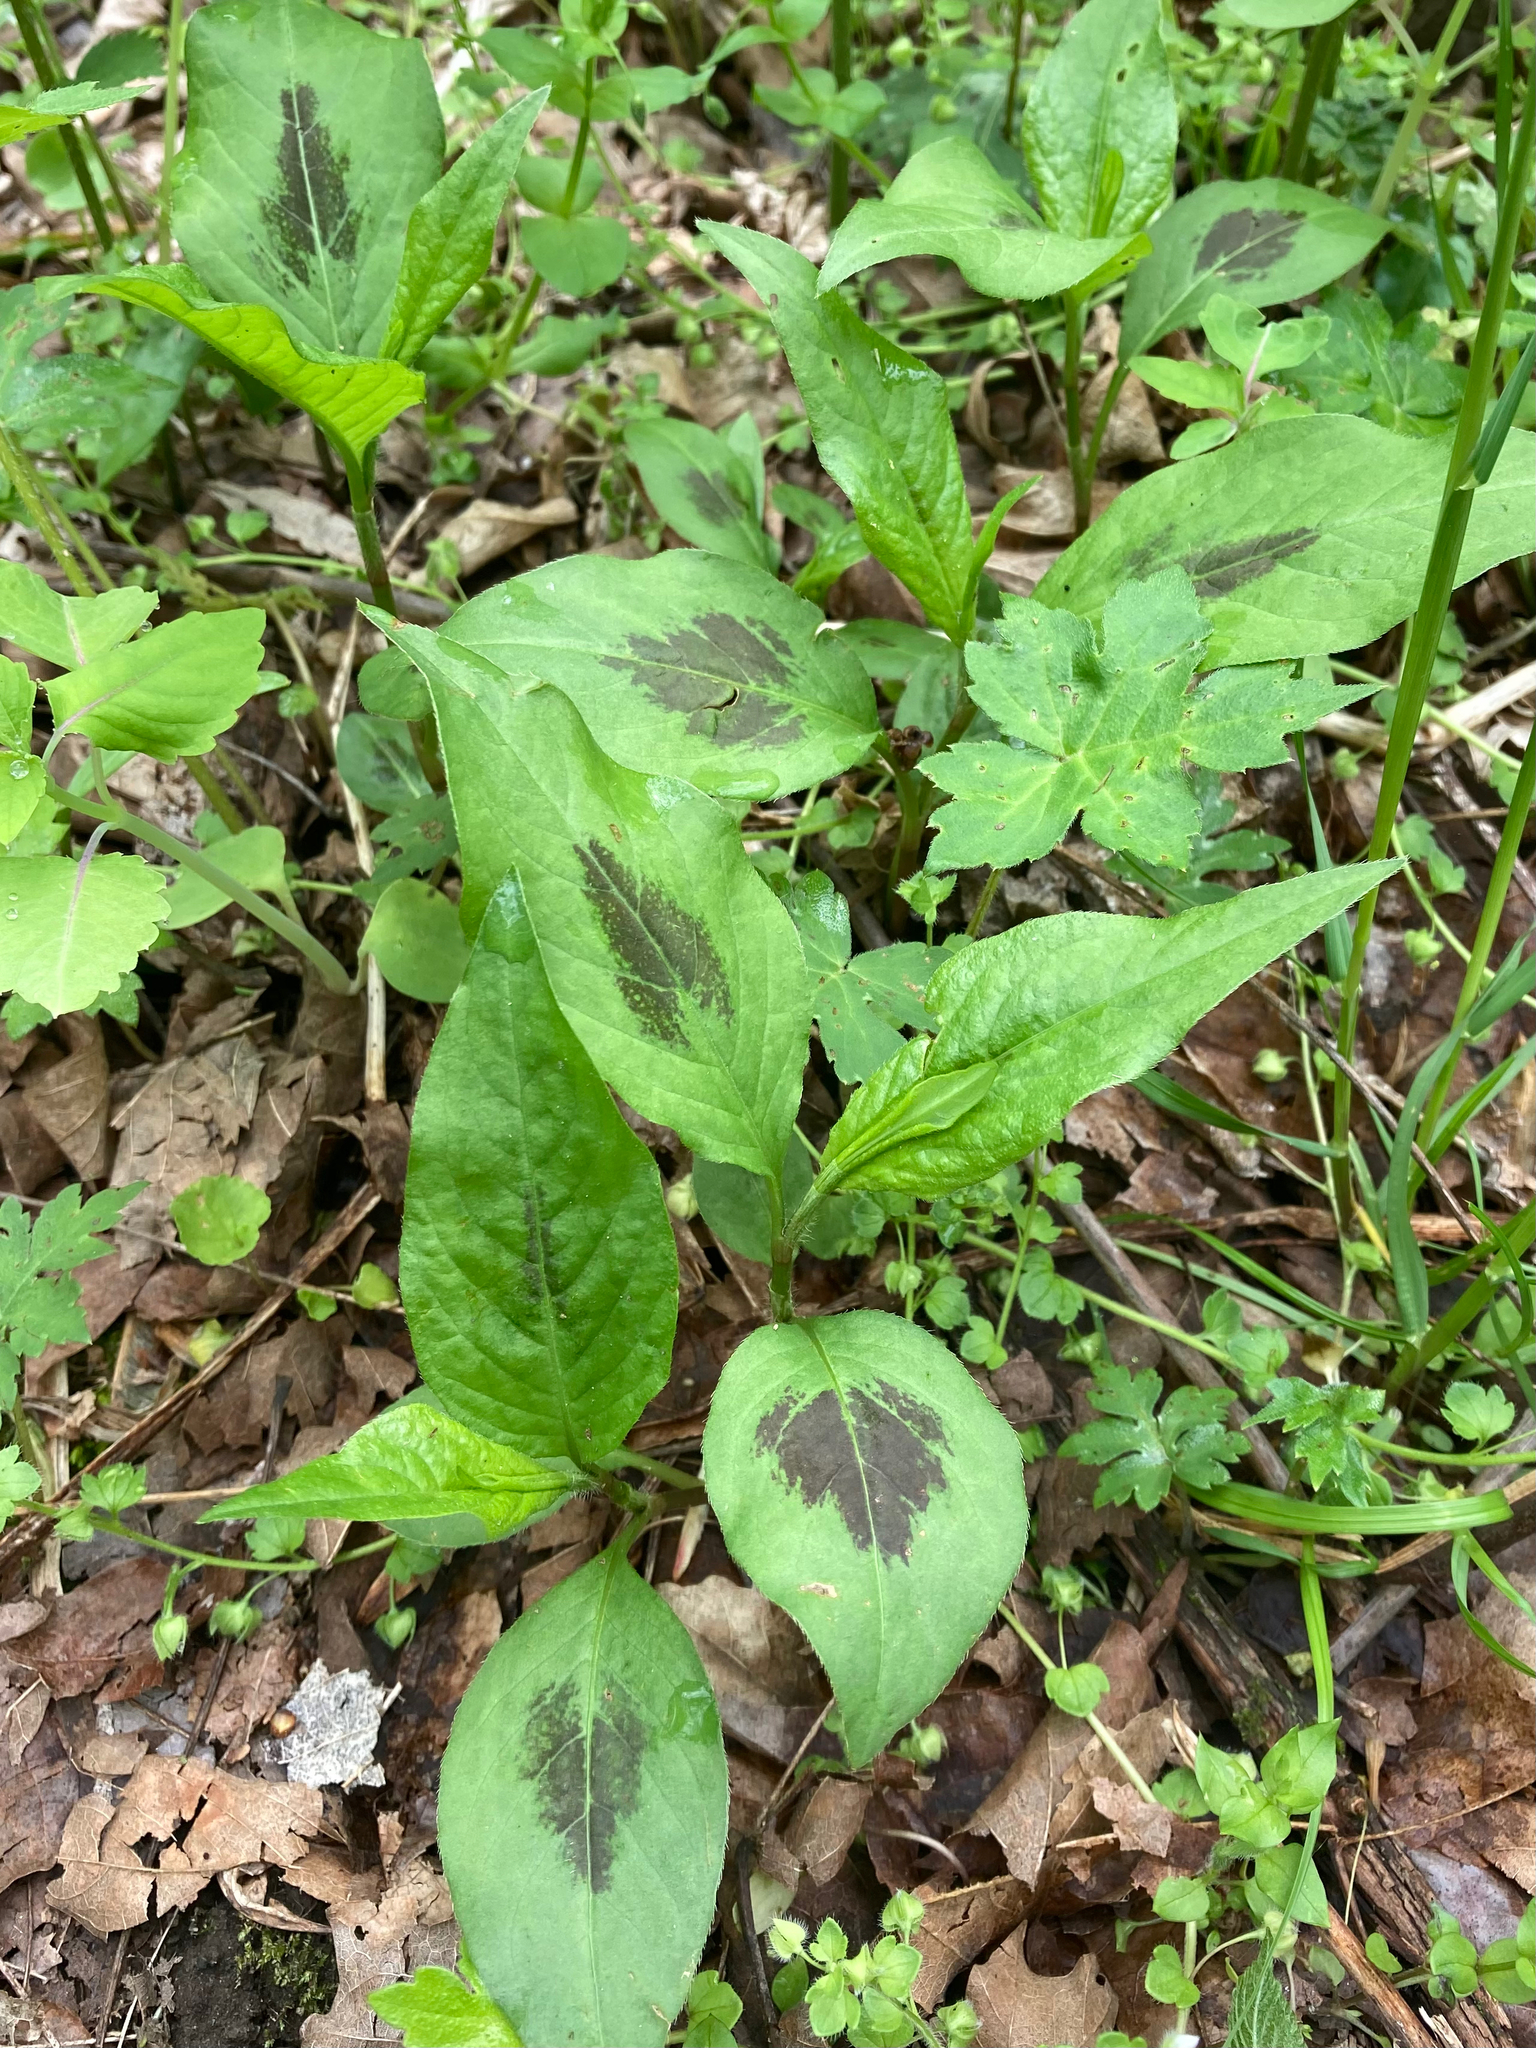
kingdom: Plantae
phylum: Tracheophyta
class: Magnoliopsida
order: Caryophyllales
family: Polygonaceae
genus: Persicaria
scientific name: Persicaria virginiana
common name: Jumpseed
